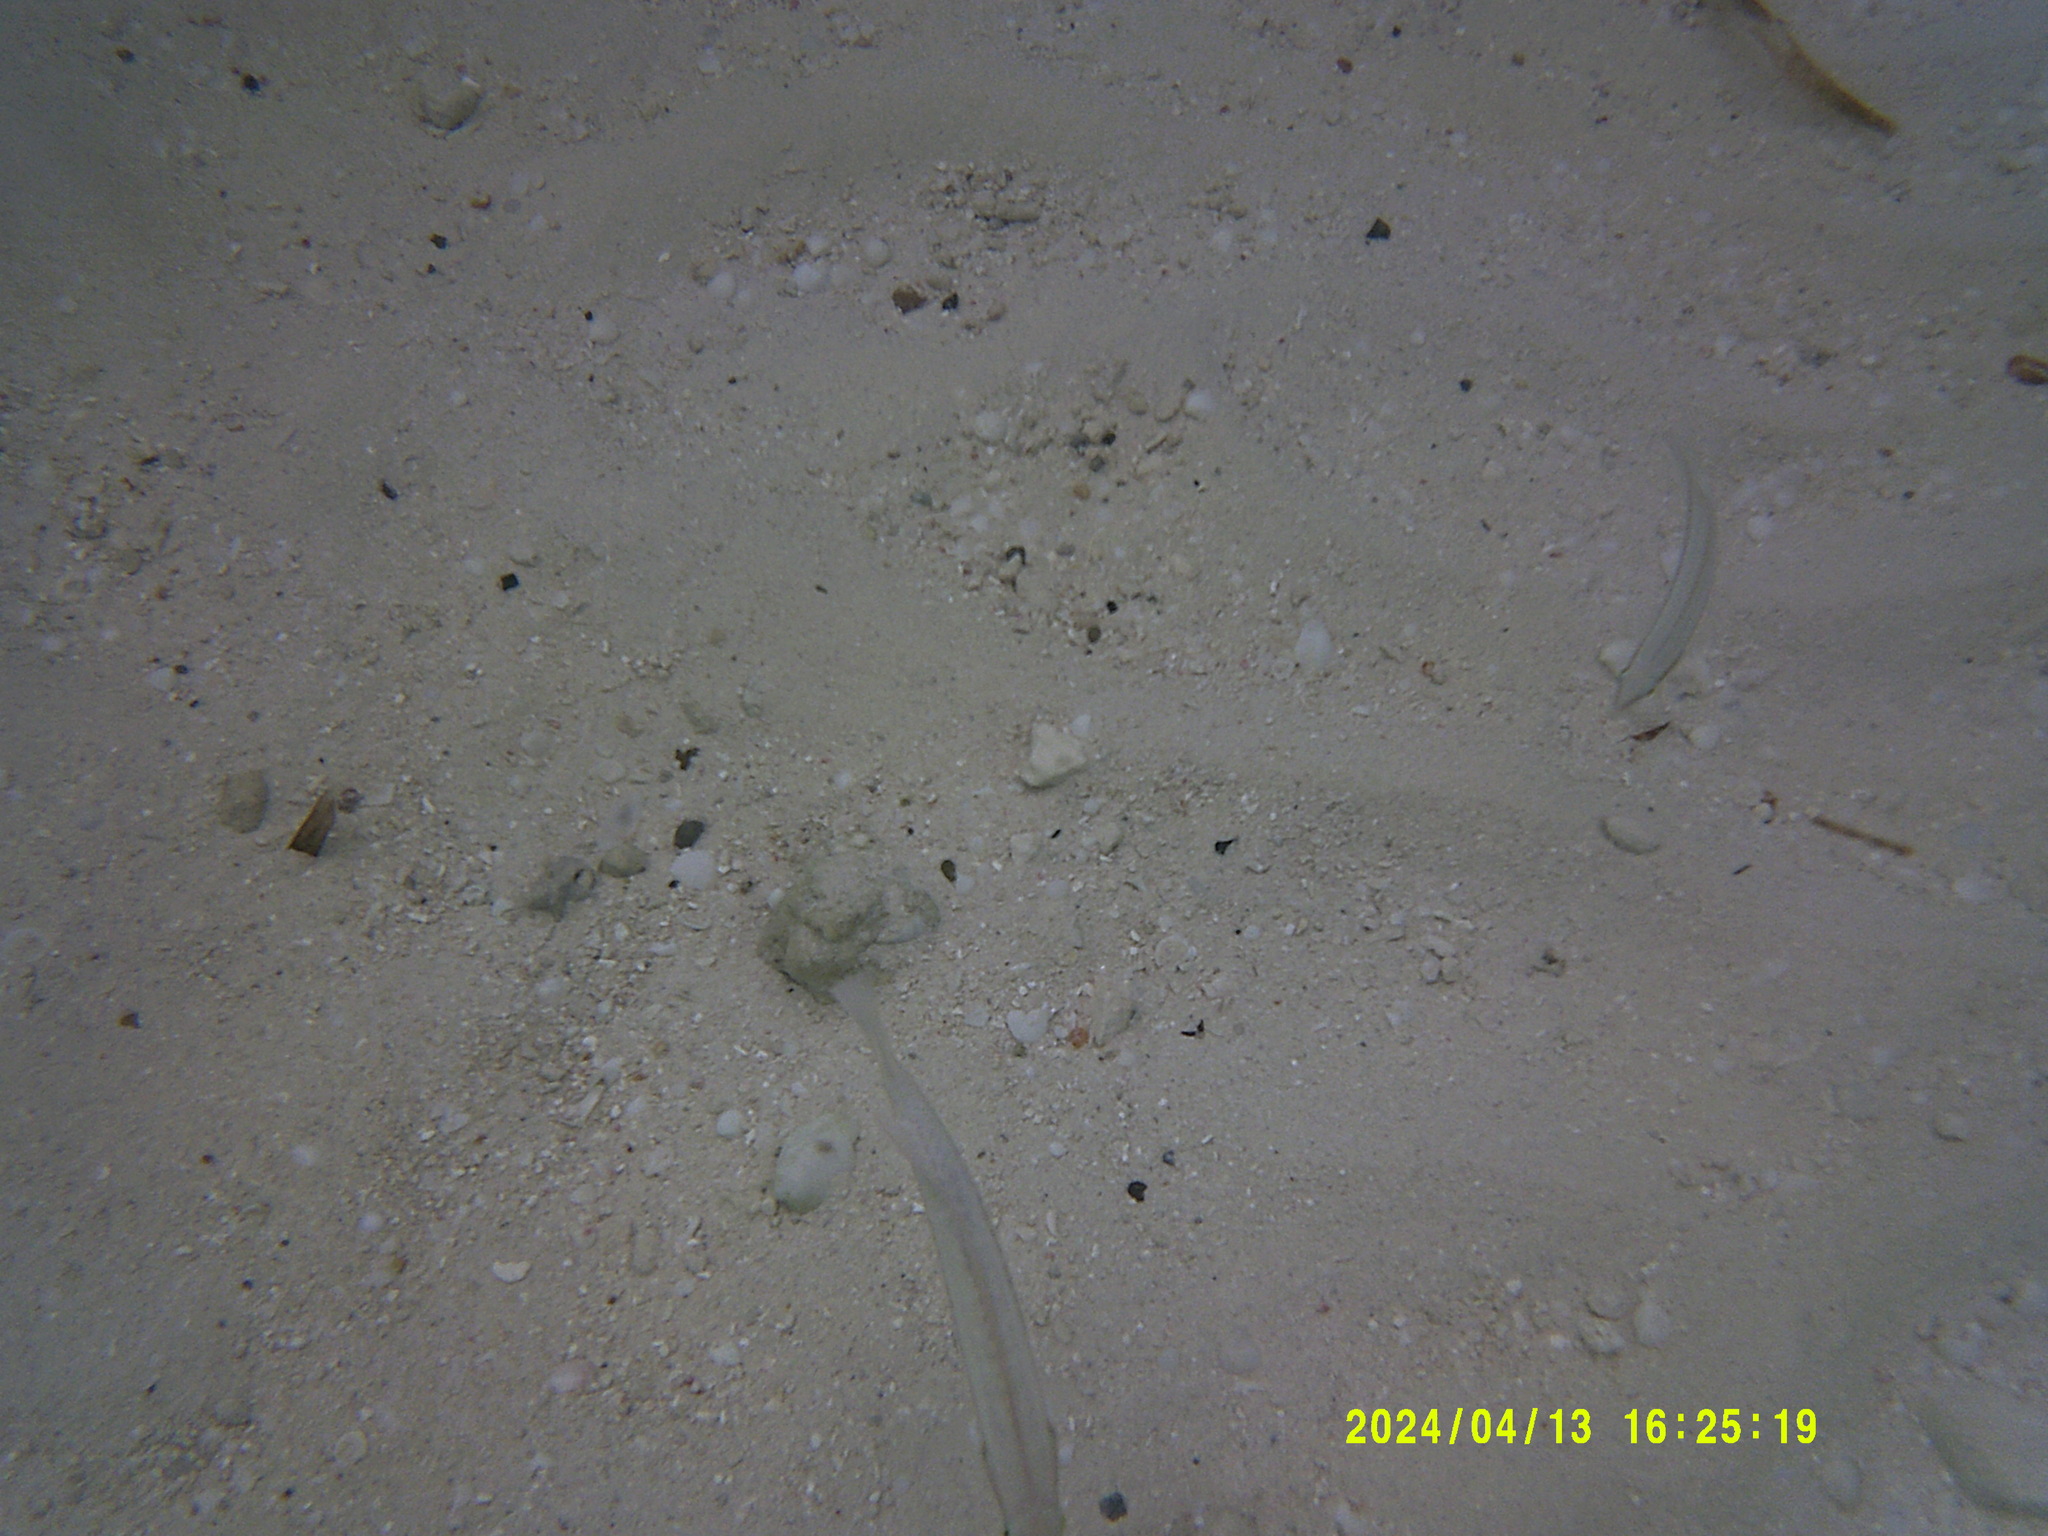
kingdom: Animalia
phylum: Chordata
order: Perciformes
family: Labridae
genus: Halichoeres
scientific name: Halichoeres bivittatus
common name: Slippery dick
